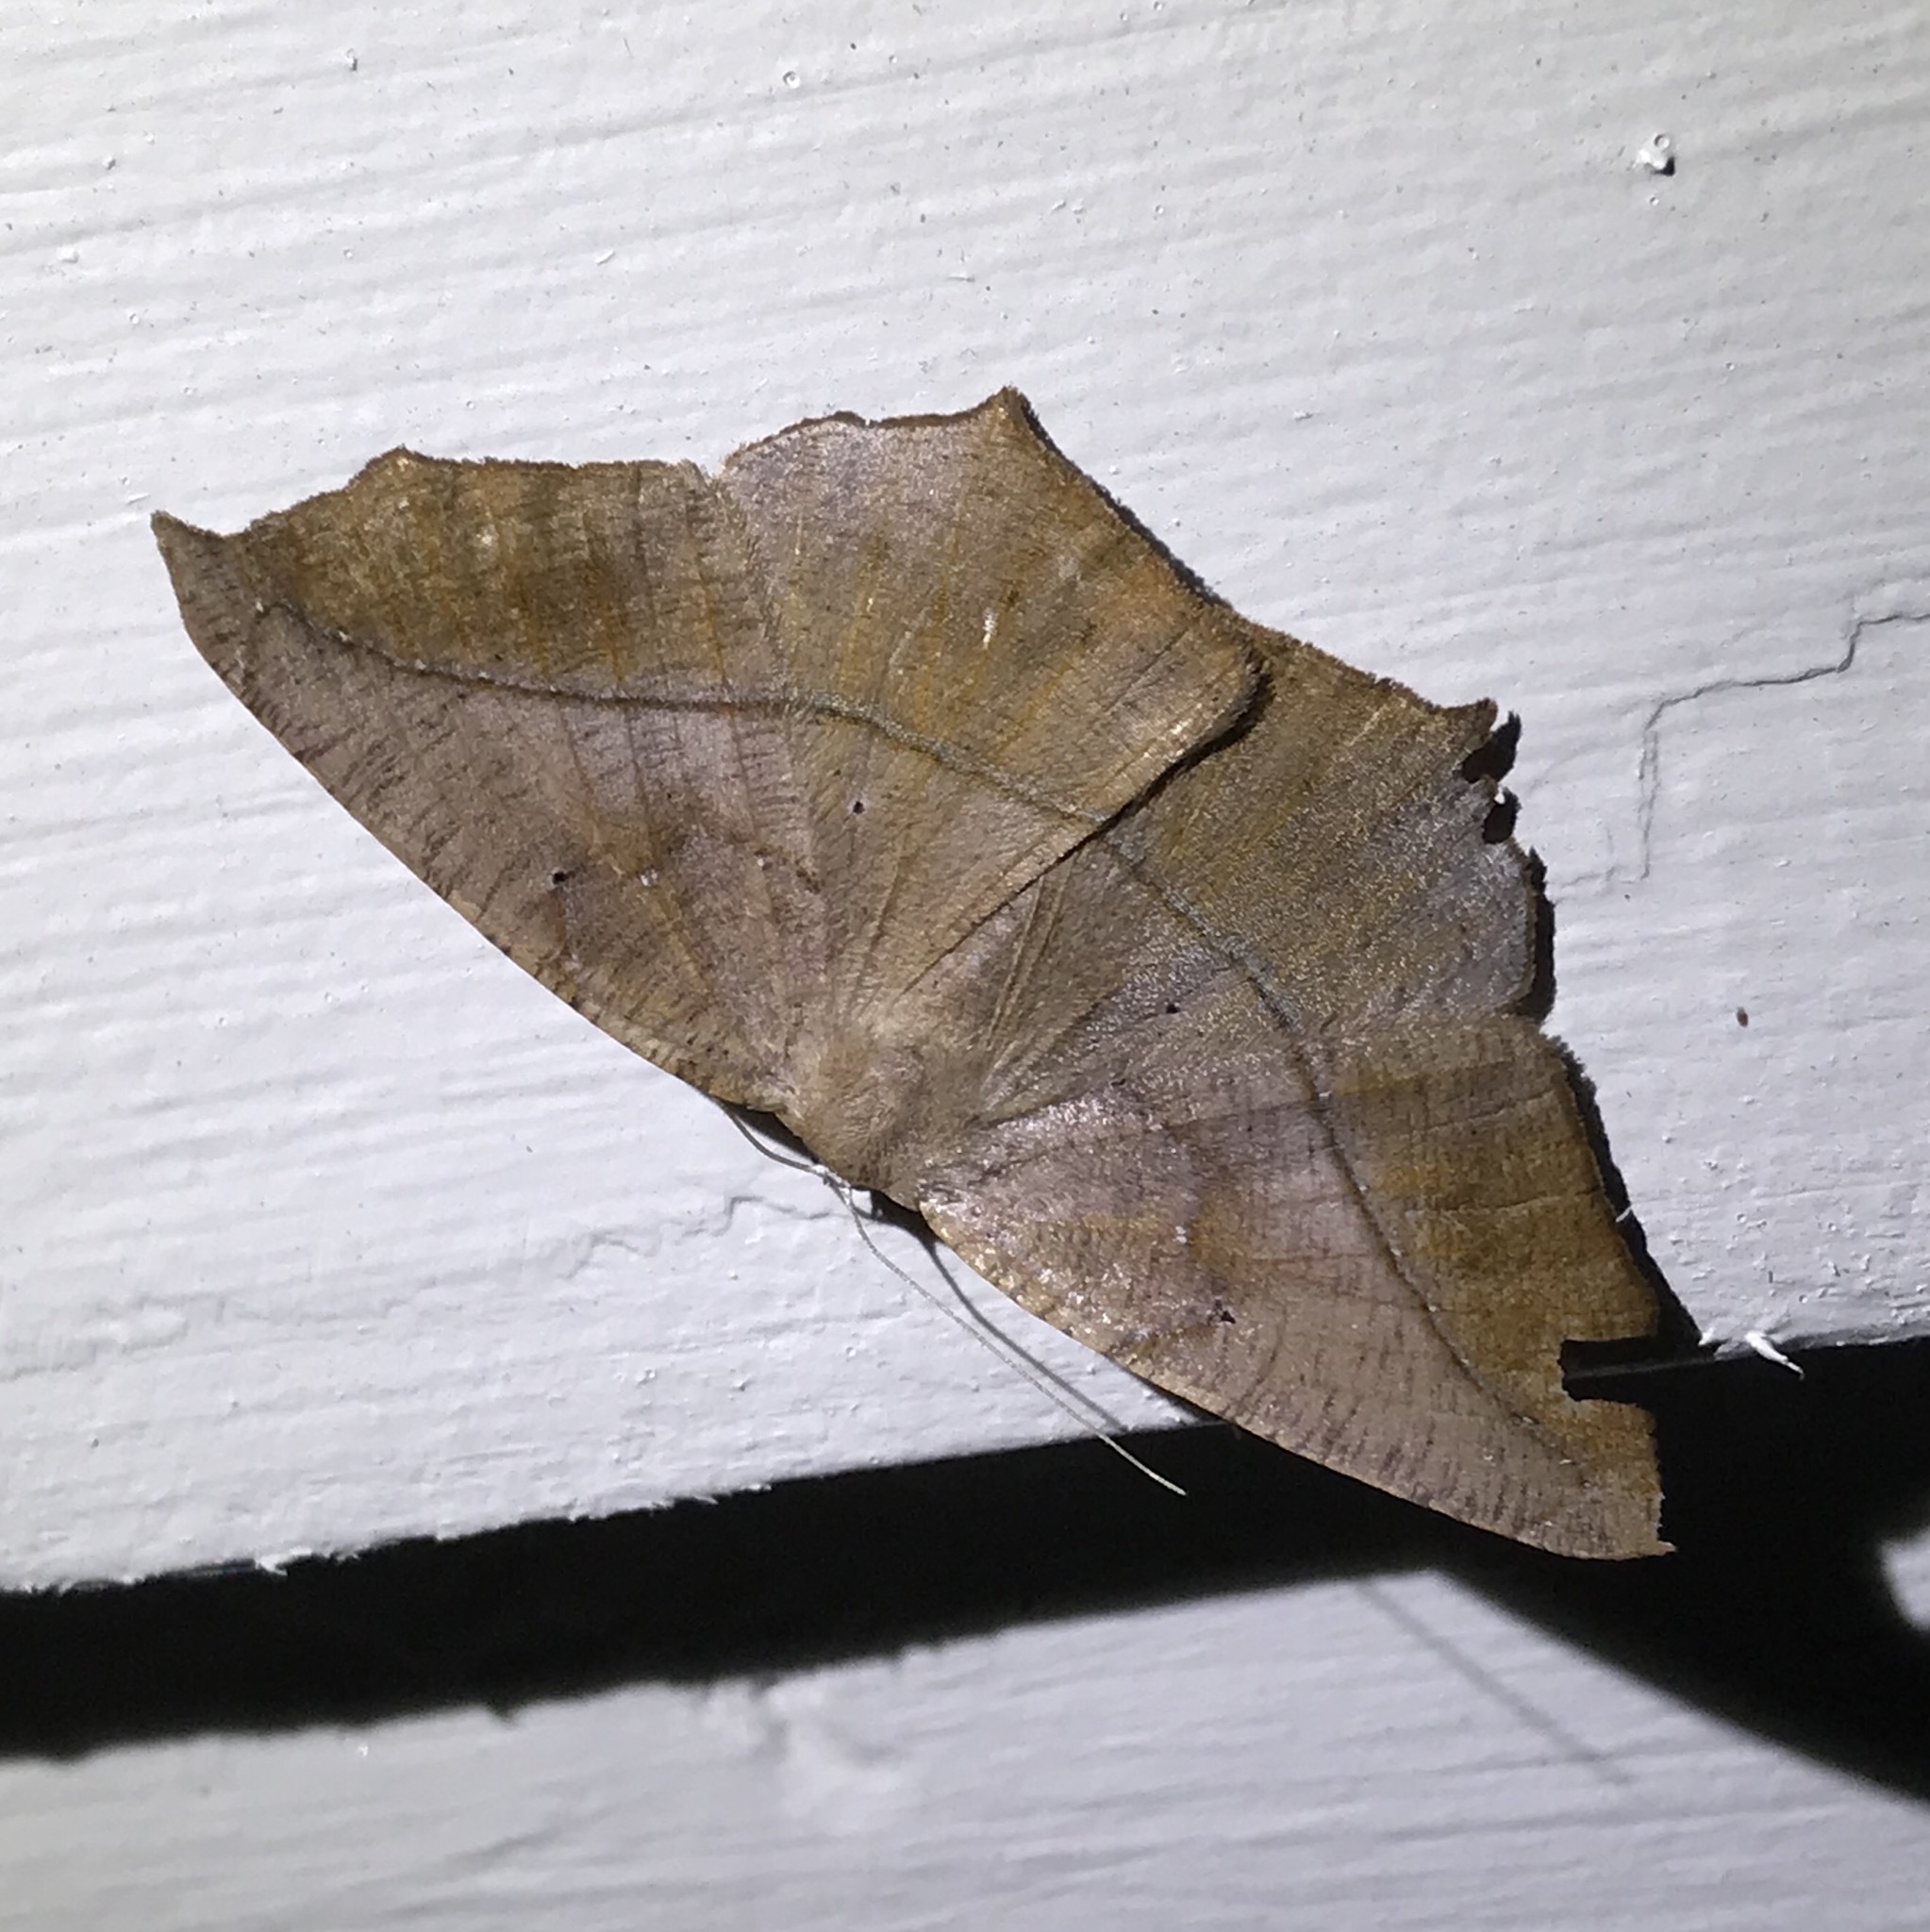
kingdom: Animalia
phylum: Arthropoda
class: Insecta
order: Lepidoptera
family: Geometridae
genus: Prochoerodes
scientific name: Prochoerodes lineola
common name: Large maple spanworm
